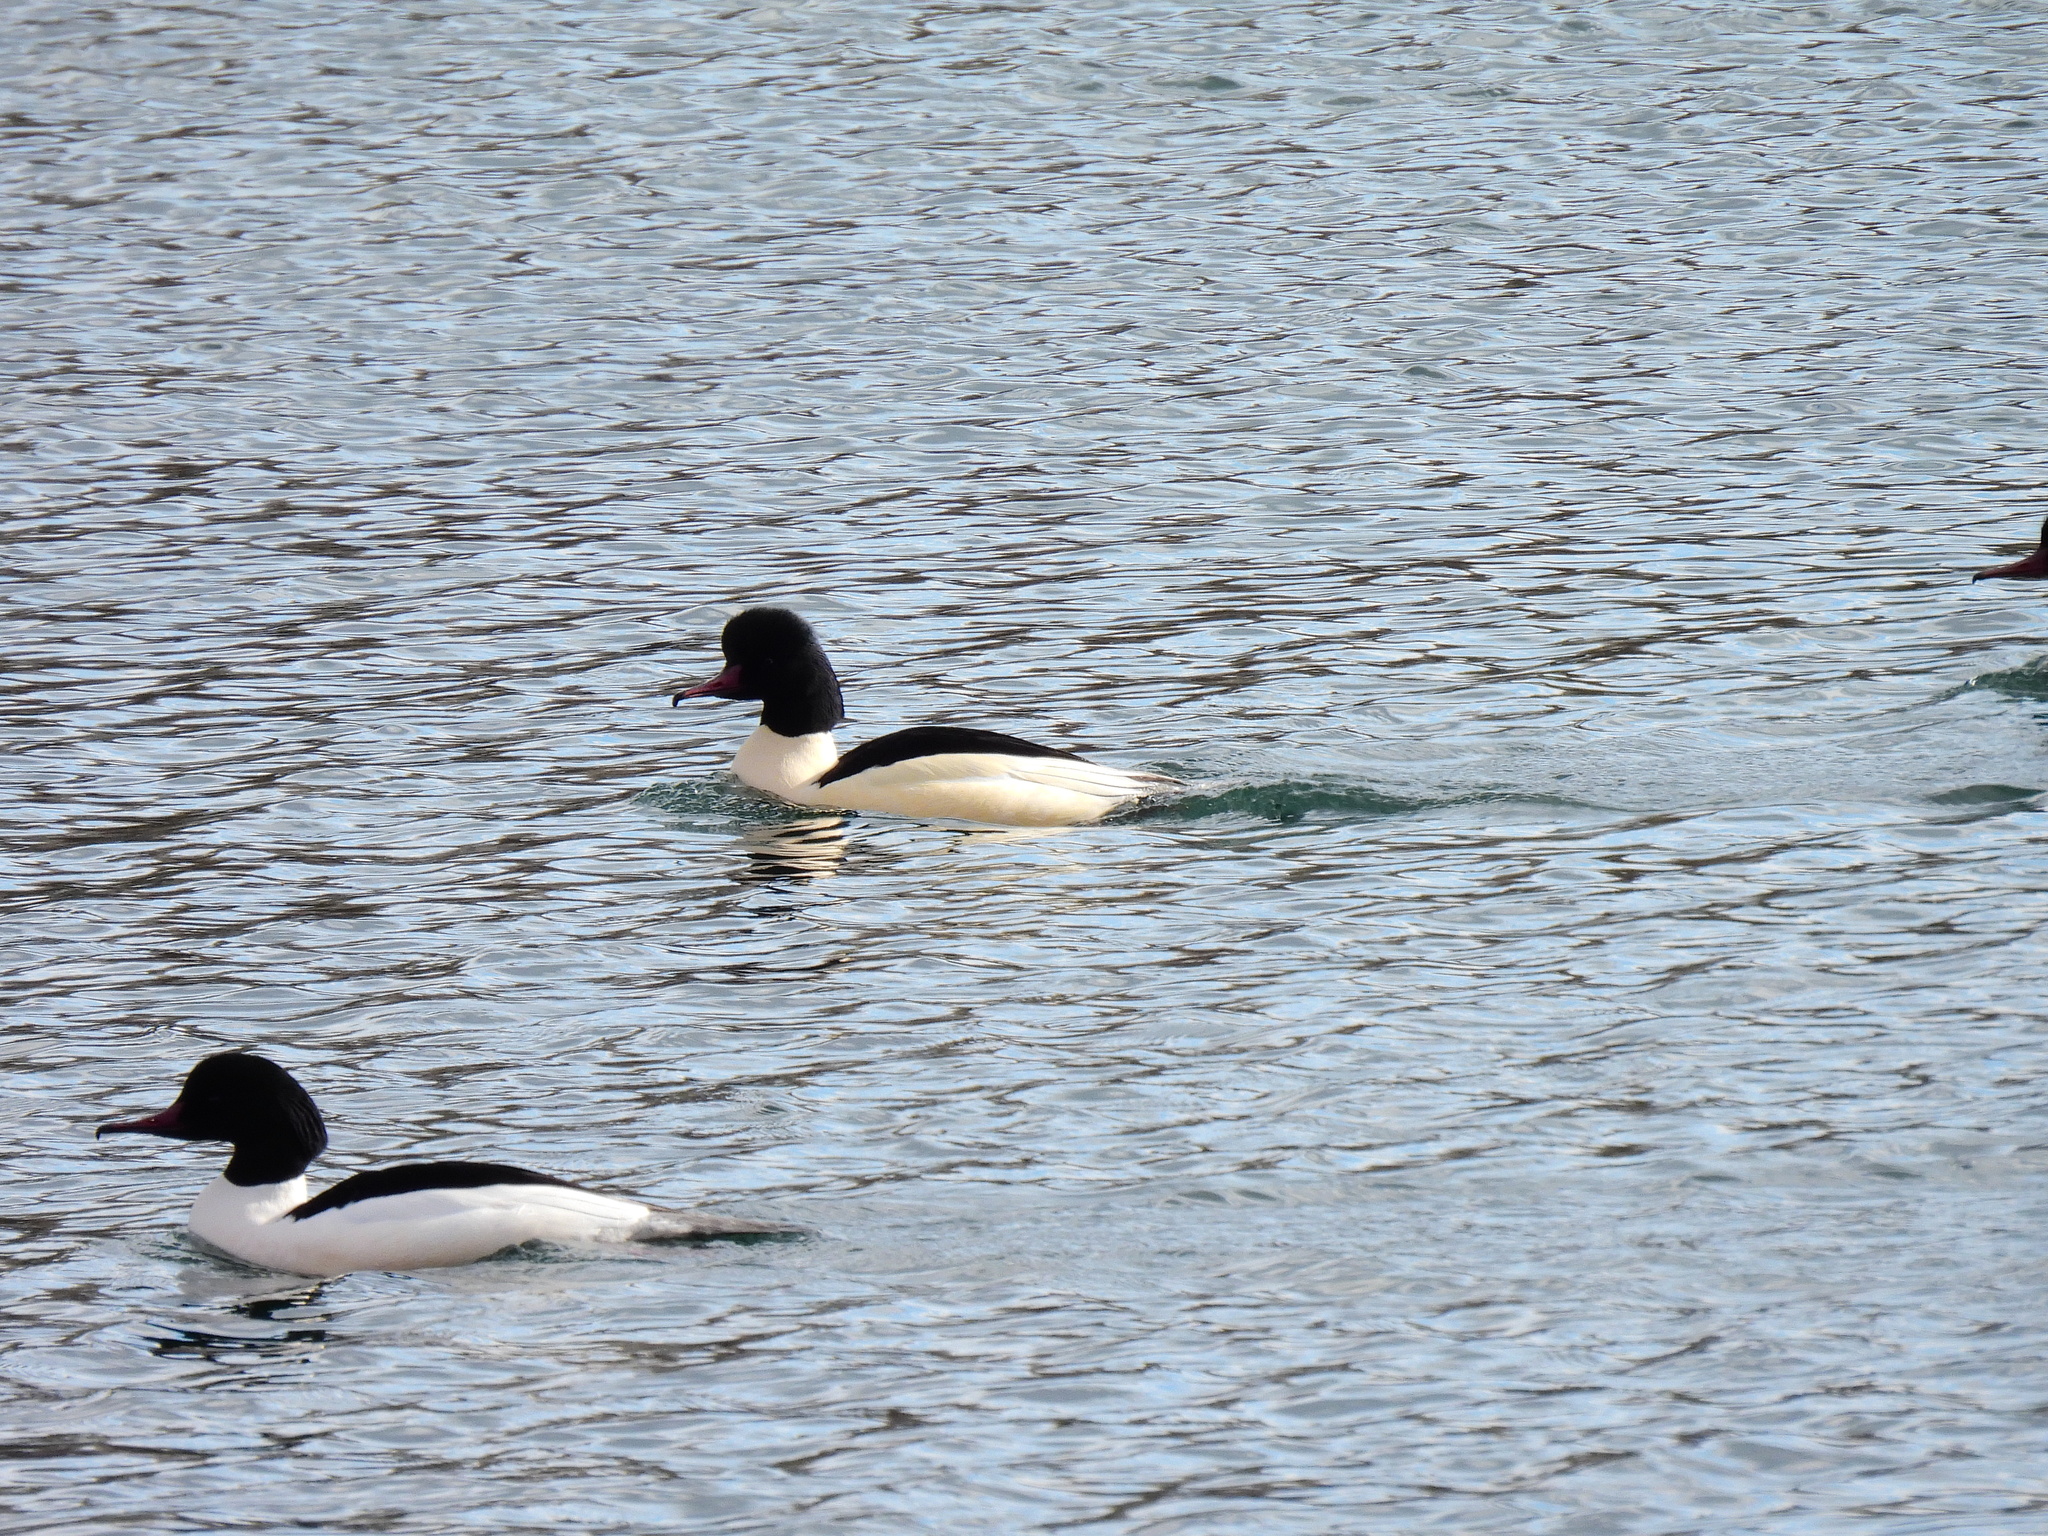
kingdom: Animalia
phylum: Chordata
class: Aves
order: Anseriformes
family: Anatidae
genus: Mergus
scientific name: Mergus merganser
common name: Common merganser
